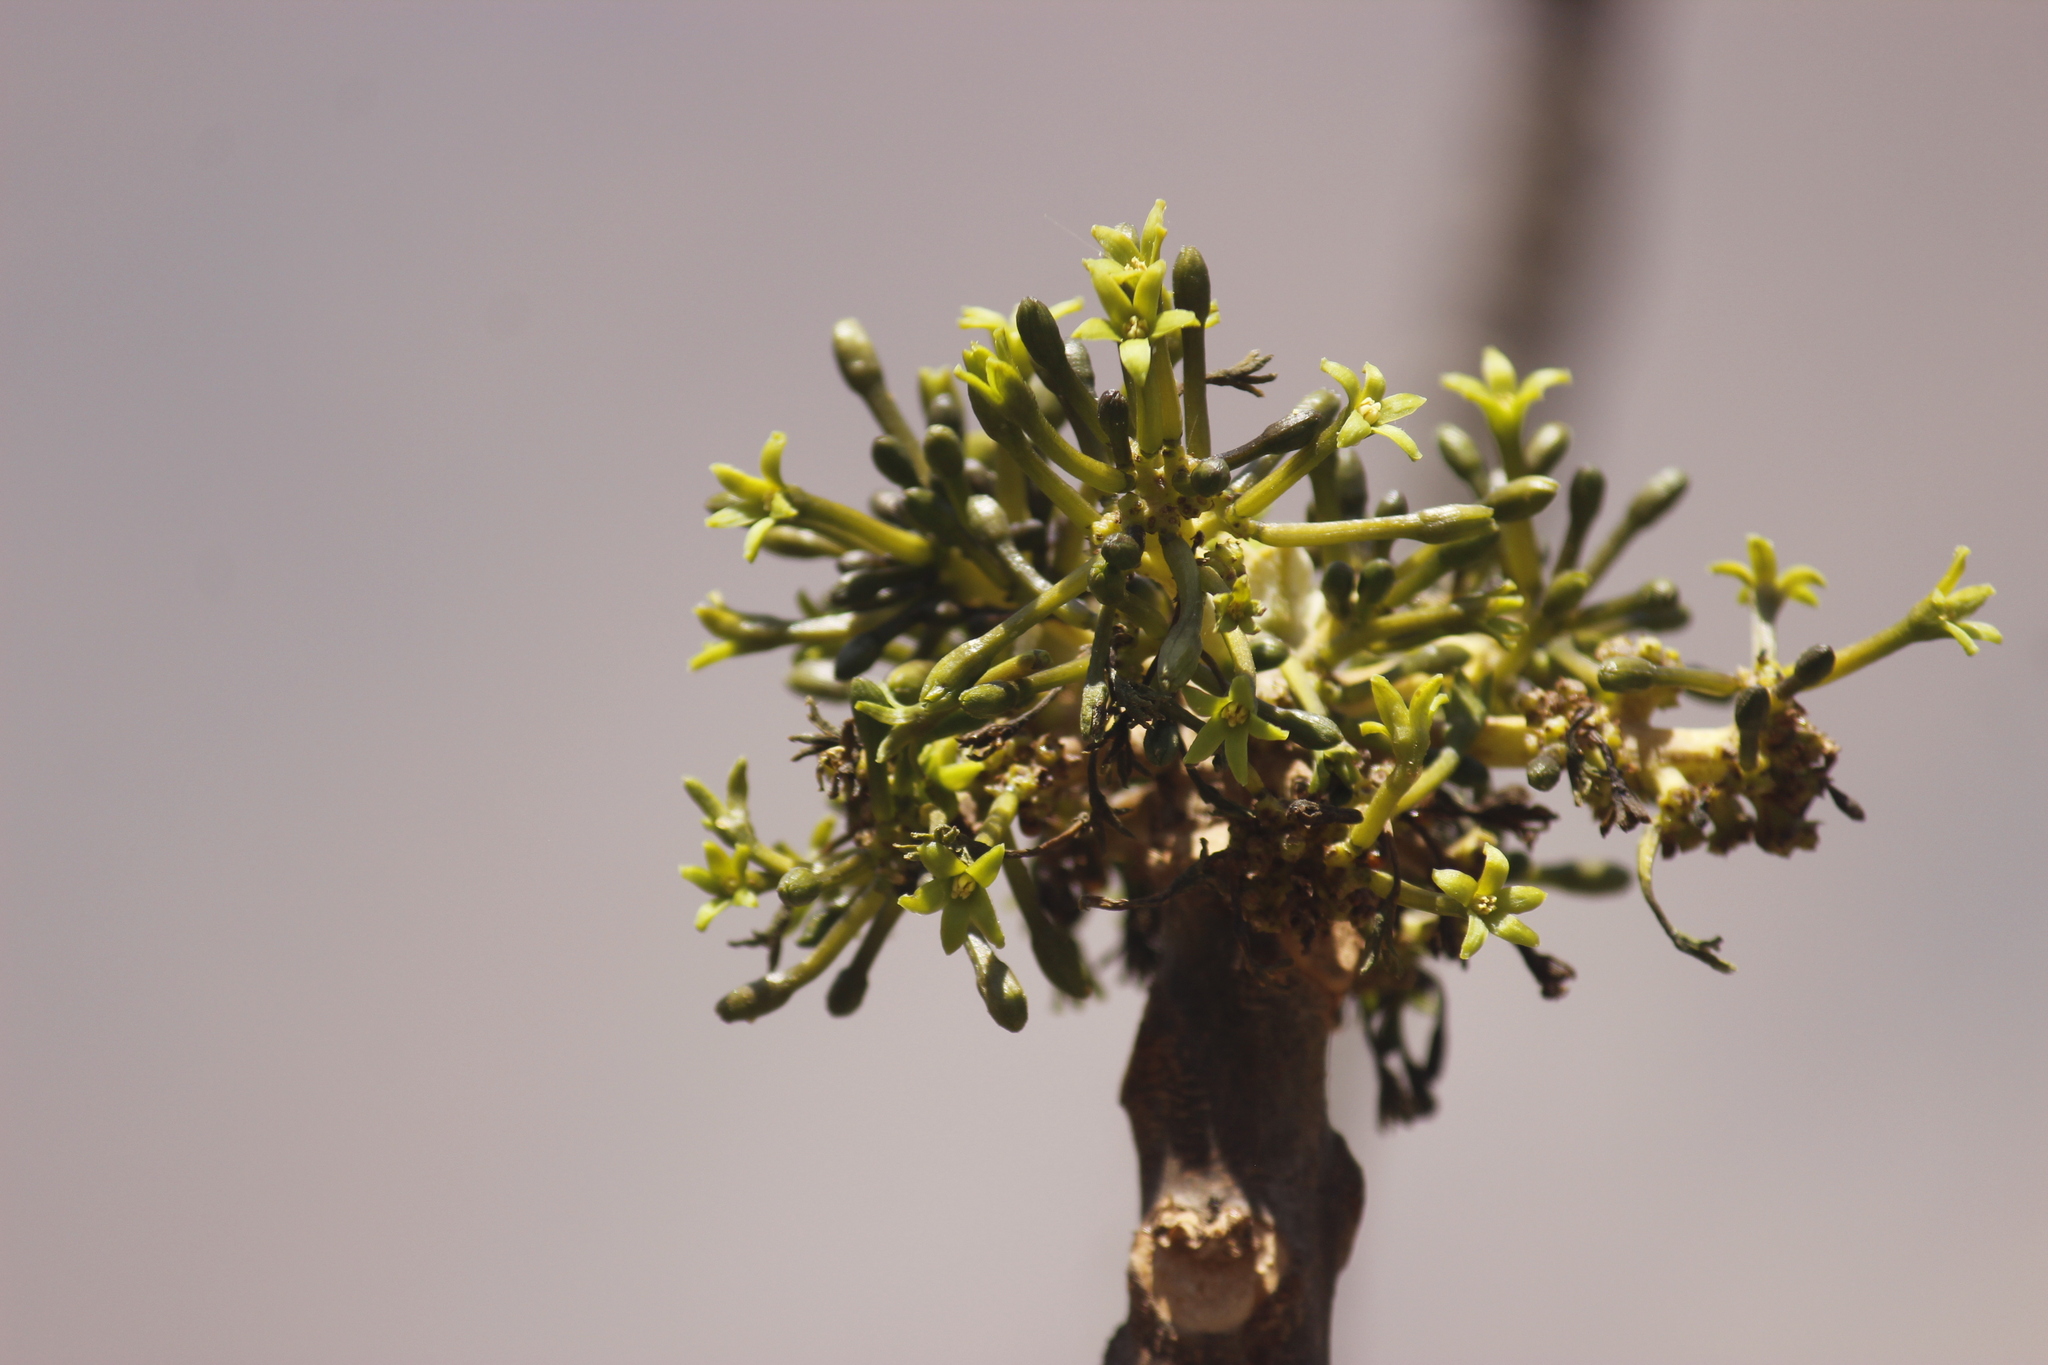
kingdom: Plantae
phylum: Tracheophyta
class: Magnoliopsida
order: Brassicales
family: Caricaceae
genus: Vasconcellea
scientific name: Vasconcellea candicans
